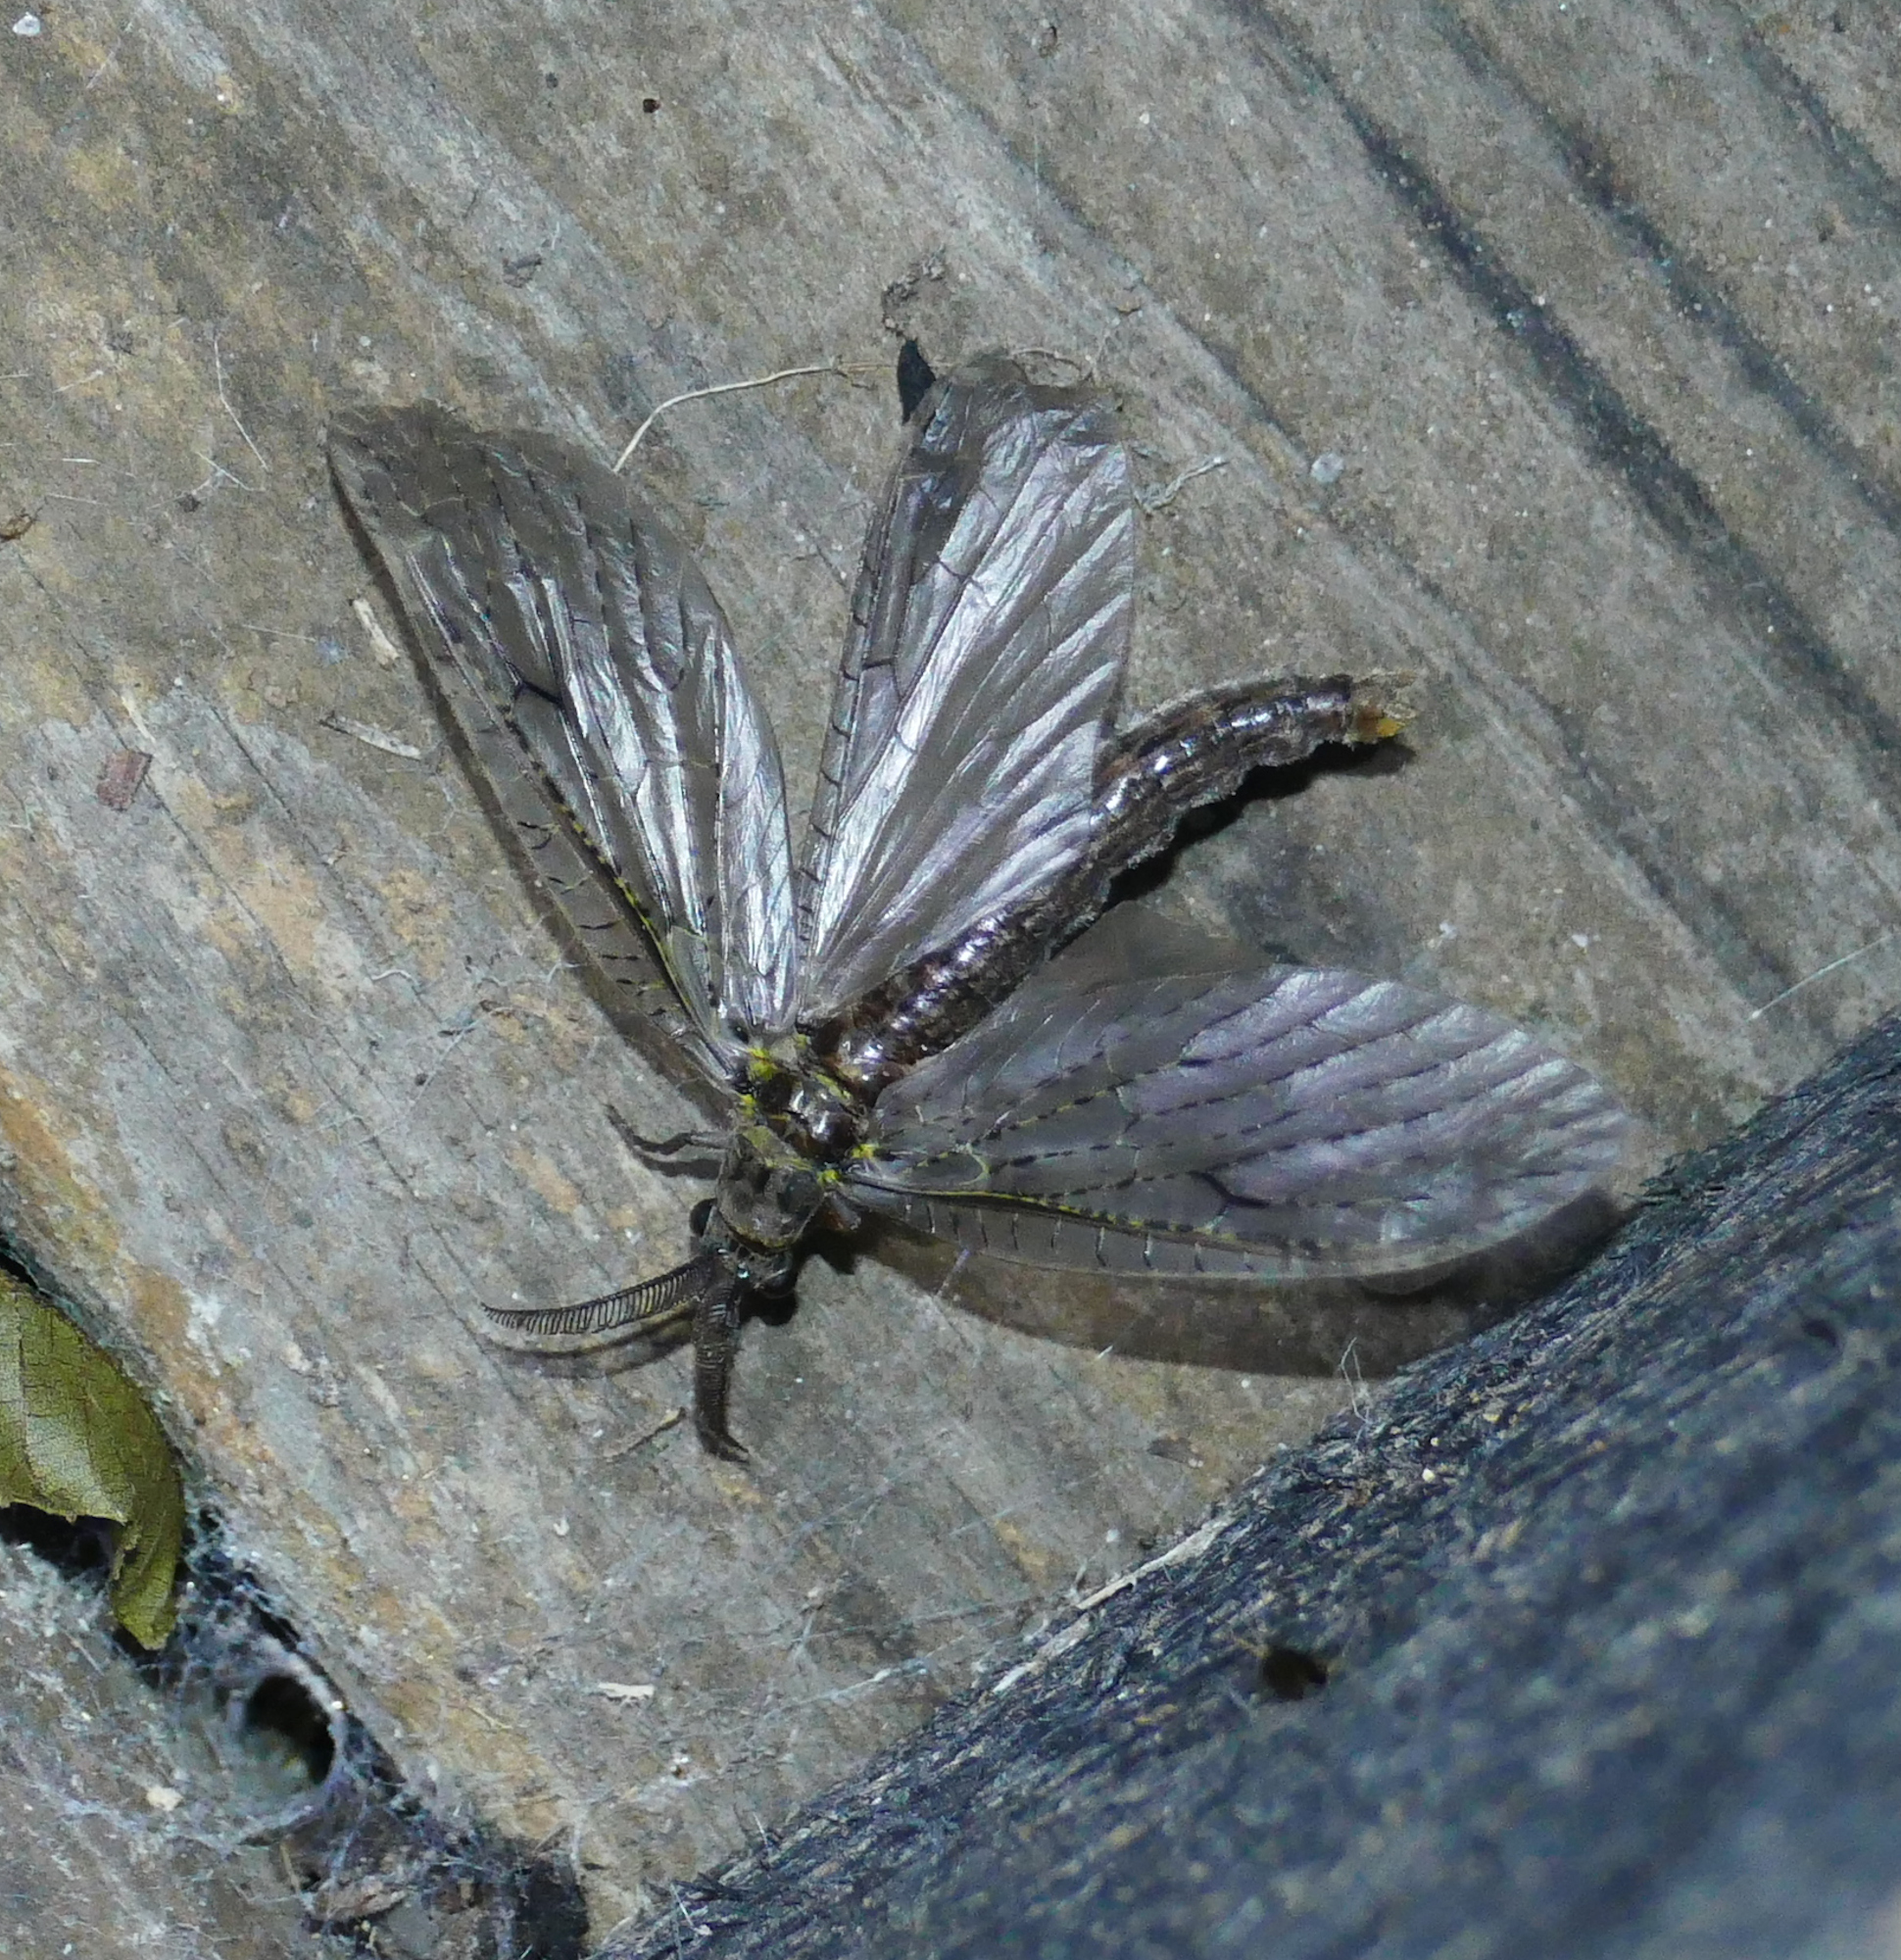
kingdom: Animalia
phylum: Arthropoda
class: Insecta
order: Megaloptera
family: Corydalidae
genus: Chauliodes
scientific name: Chauliodes rastricornis
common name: Spring fishfly
